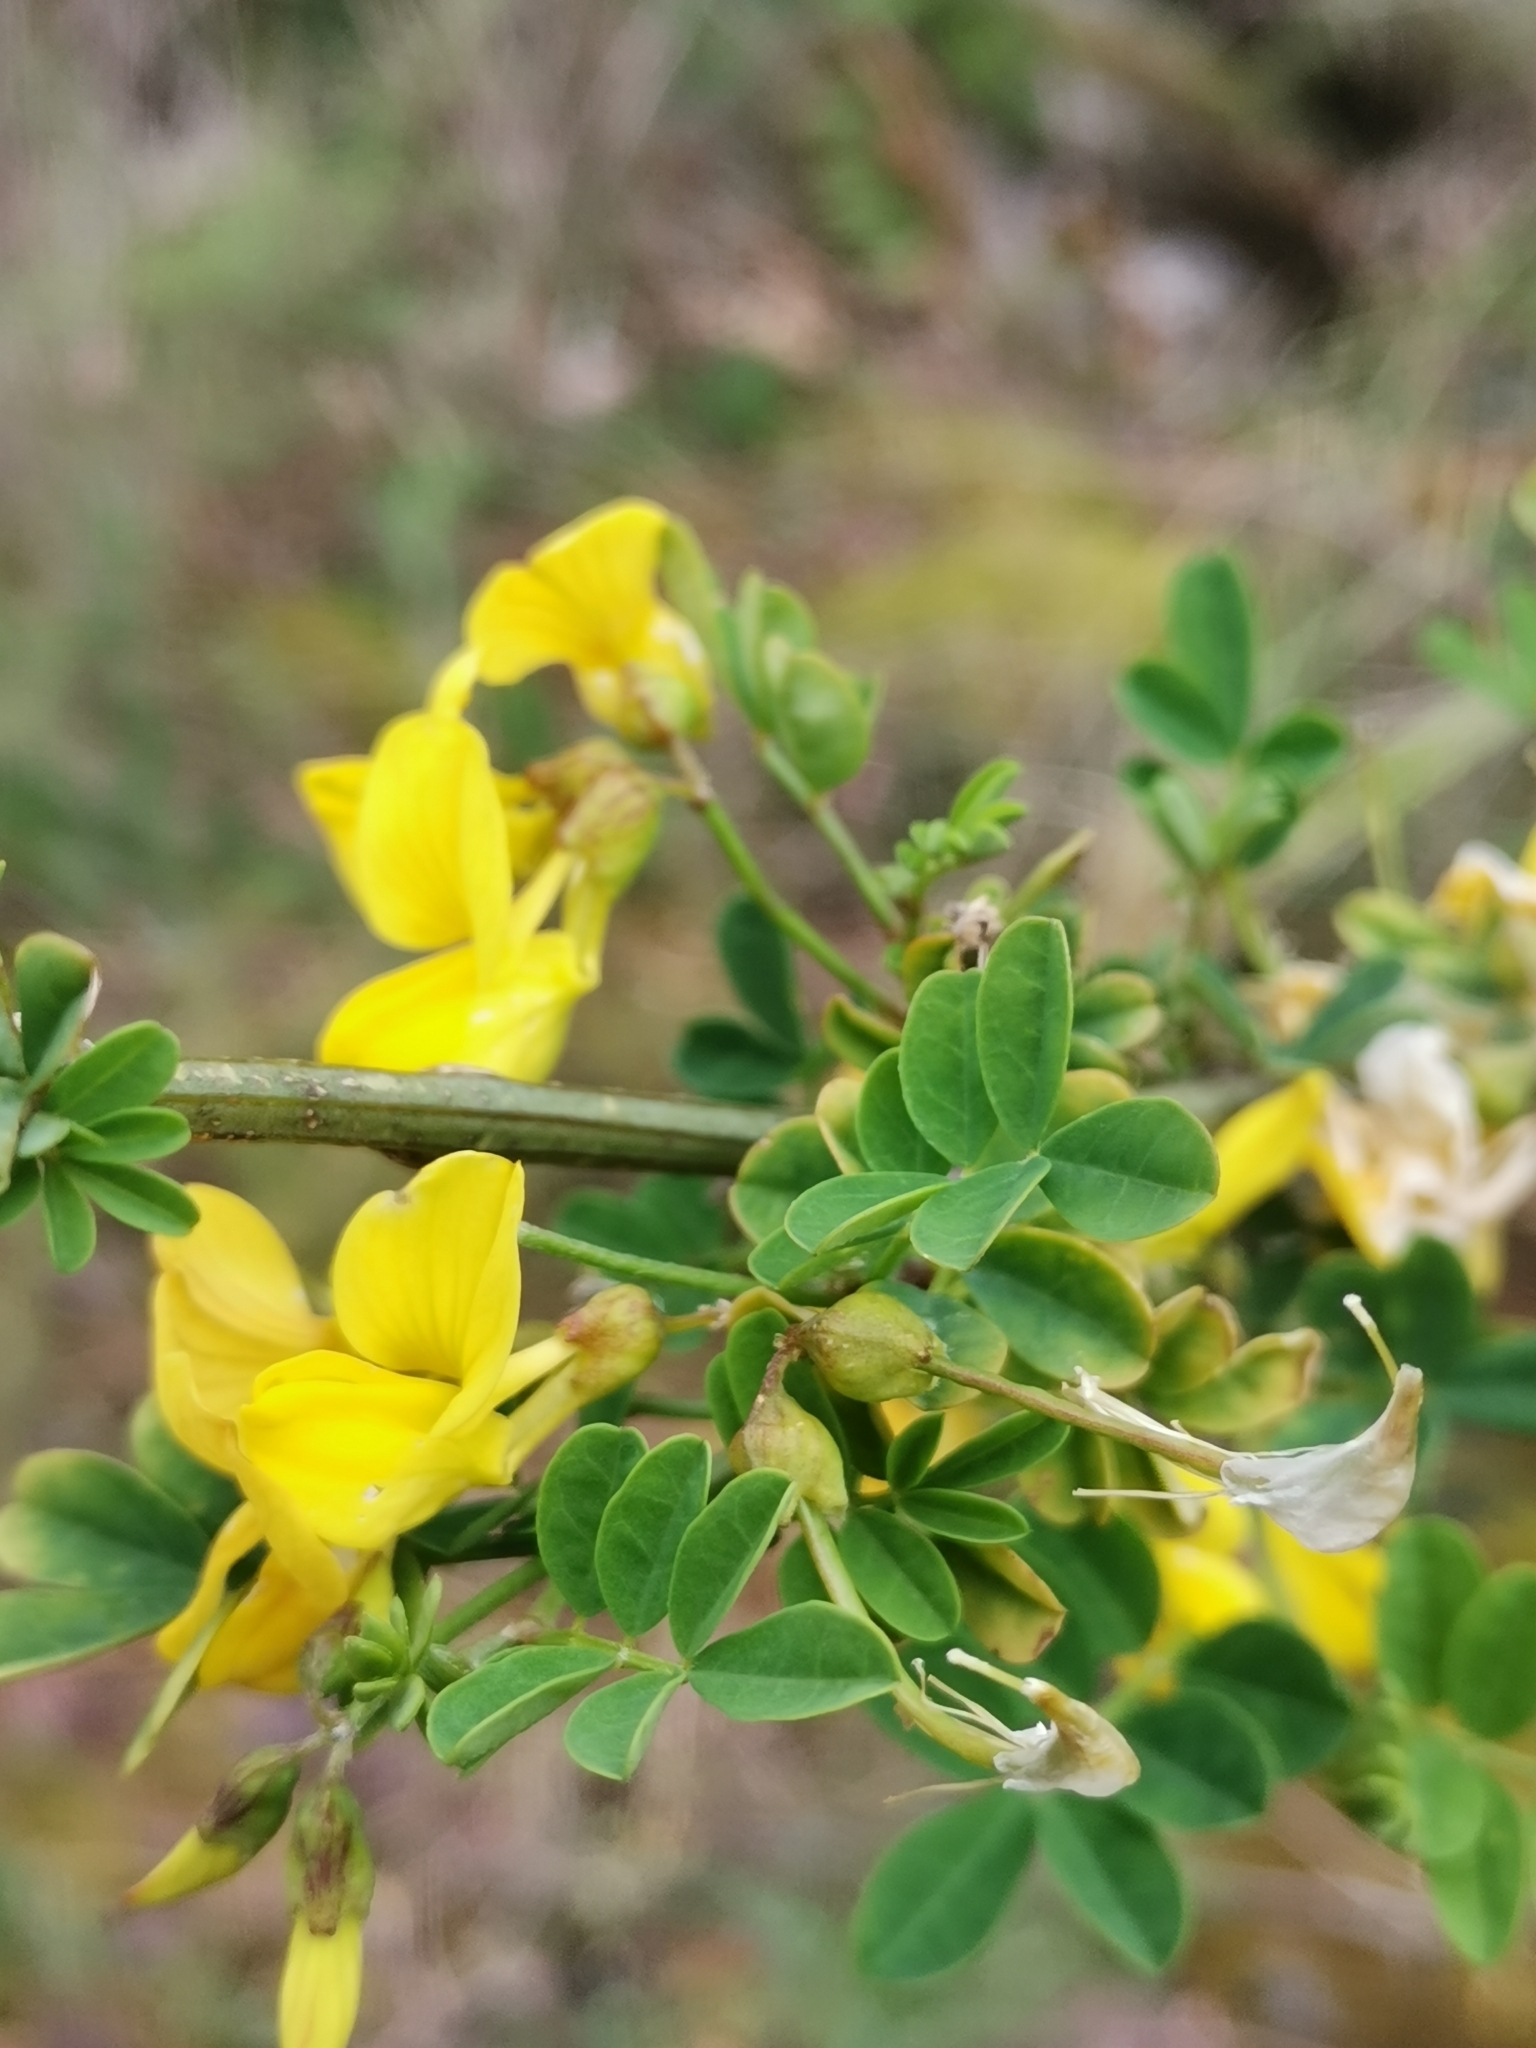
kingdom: Plantae
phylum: Tracheophyta
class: Magnoliopsida
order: Fabales
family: Fabaceae
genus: Hippocrepis
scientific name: Hippocrepis emerus
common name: Scorpion senna
